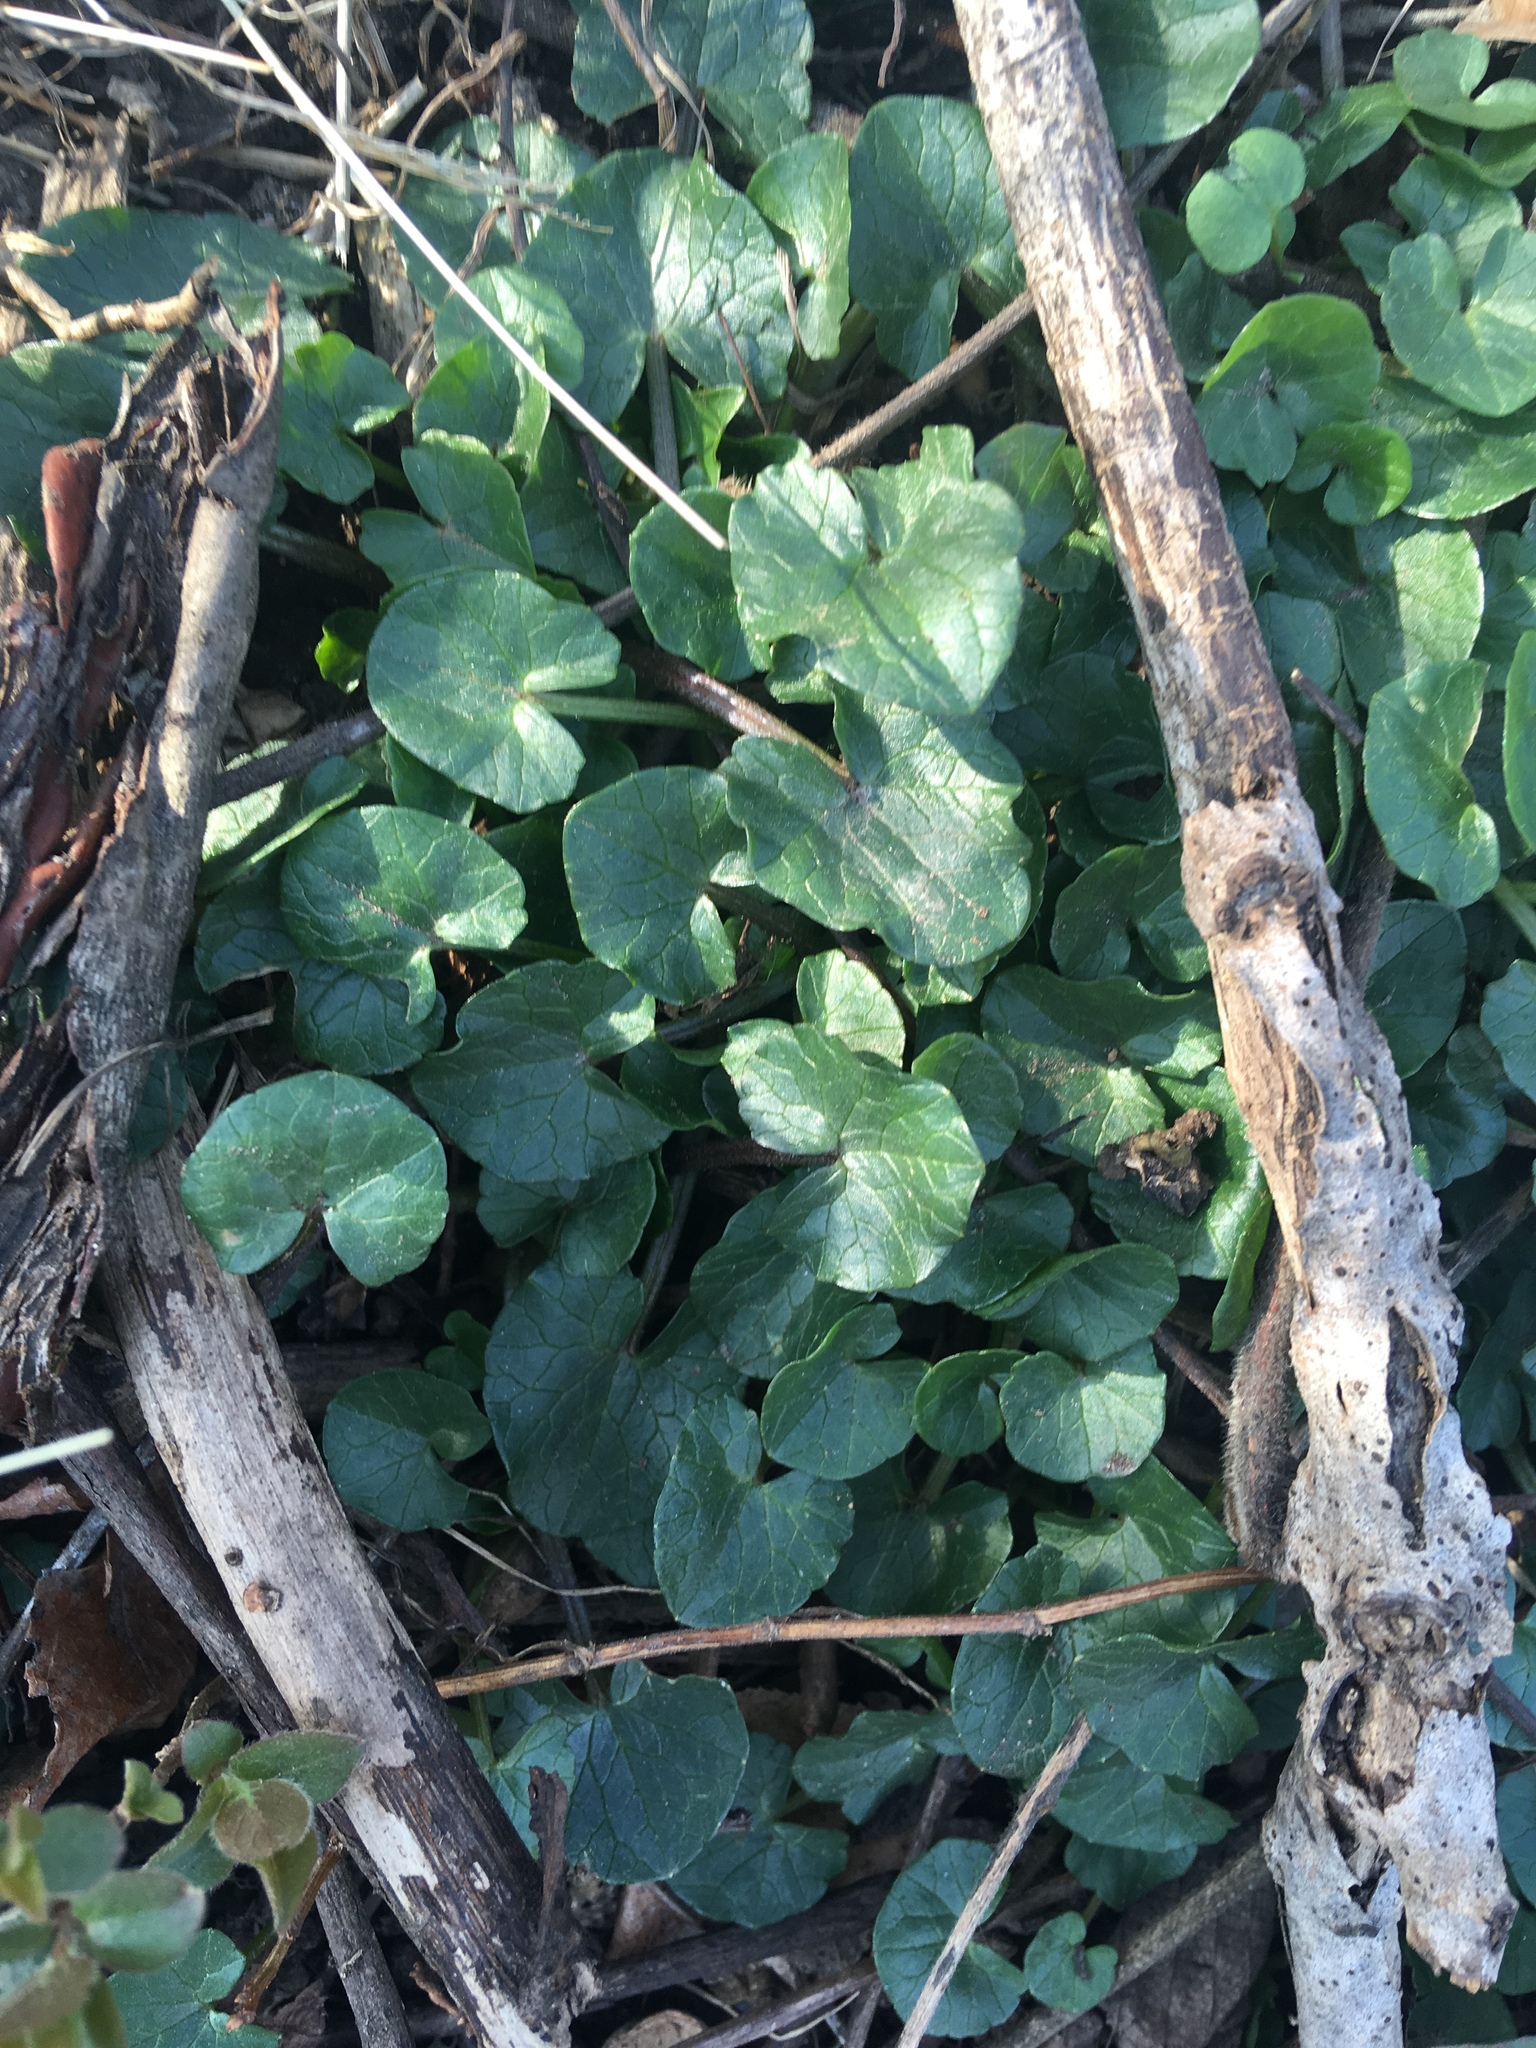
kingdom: Plantae
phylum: Tracheophyta
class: Magnoliopsida
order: Ranunculales
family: Ranunculaceae
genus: Ficaria
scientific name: Ficaria verna
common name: Lesser celandine
